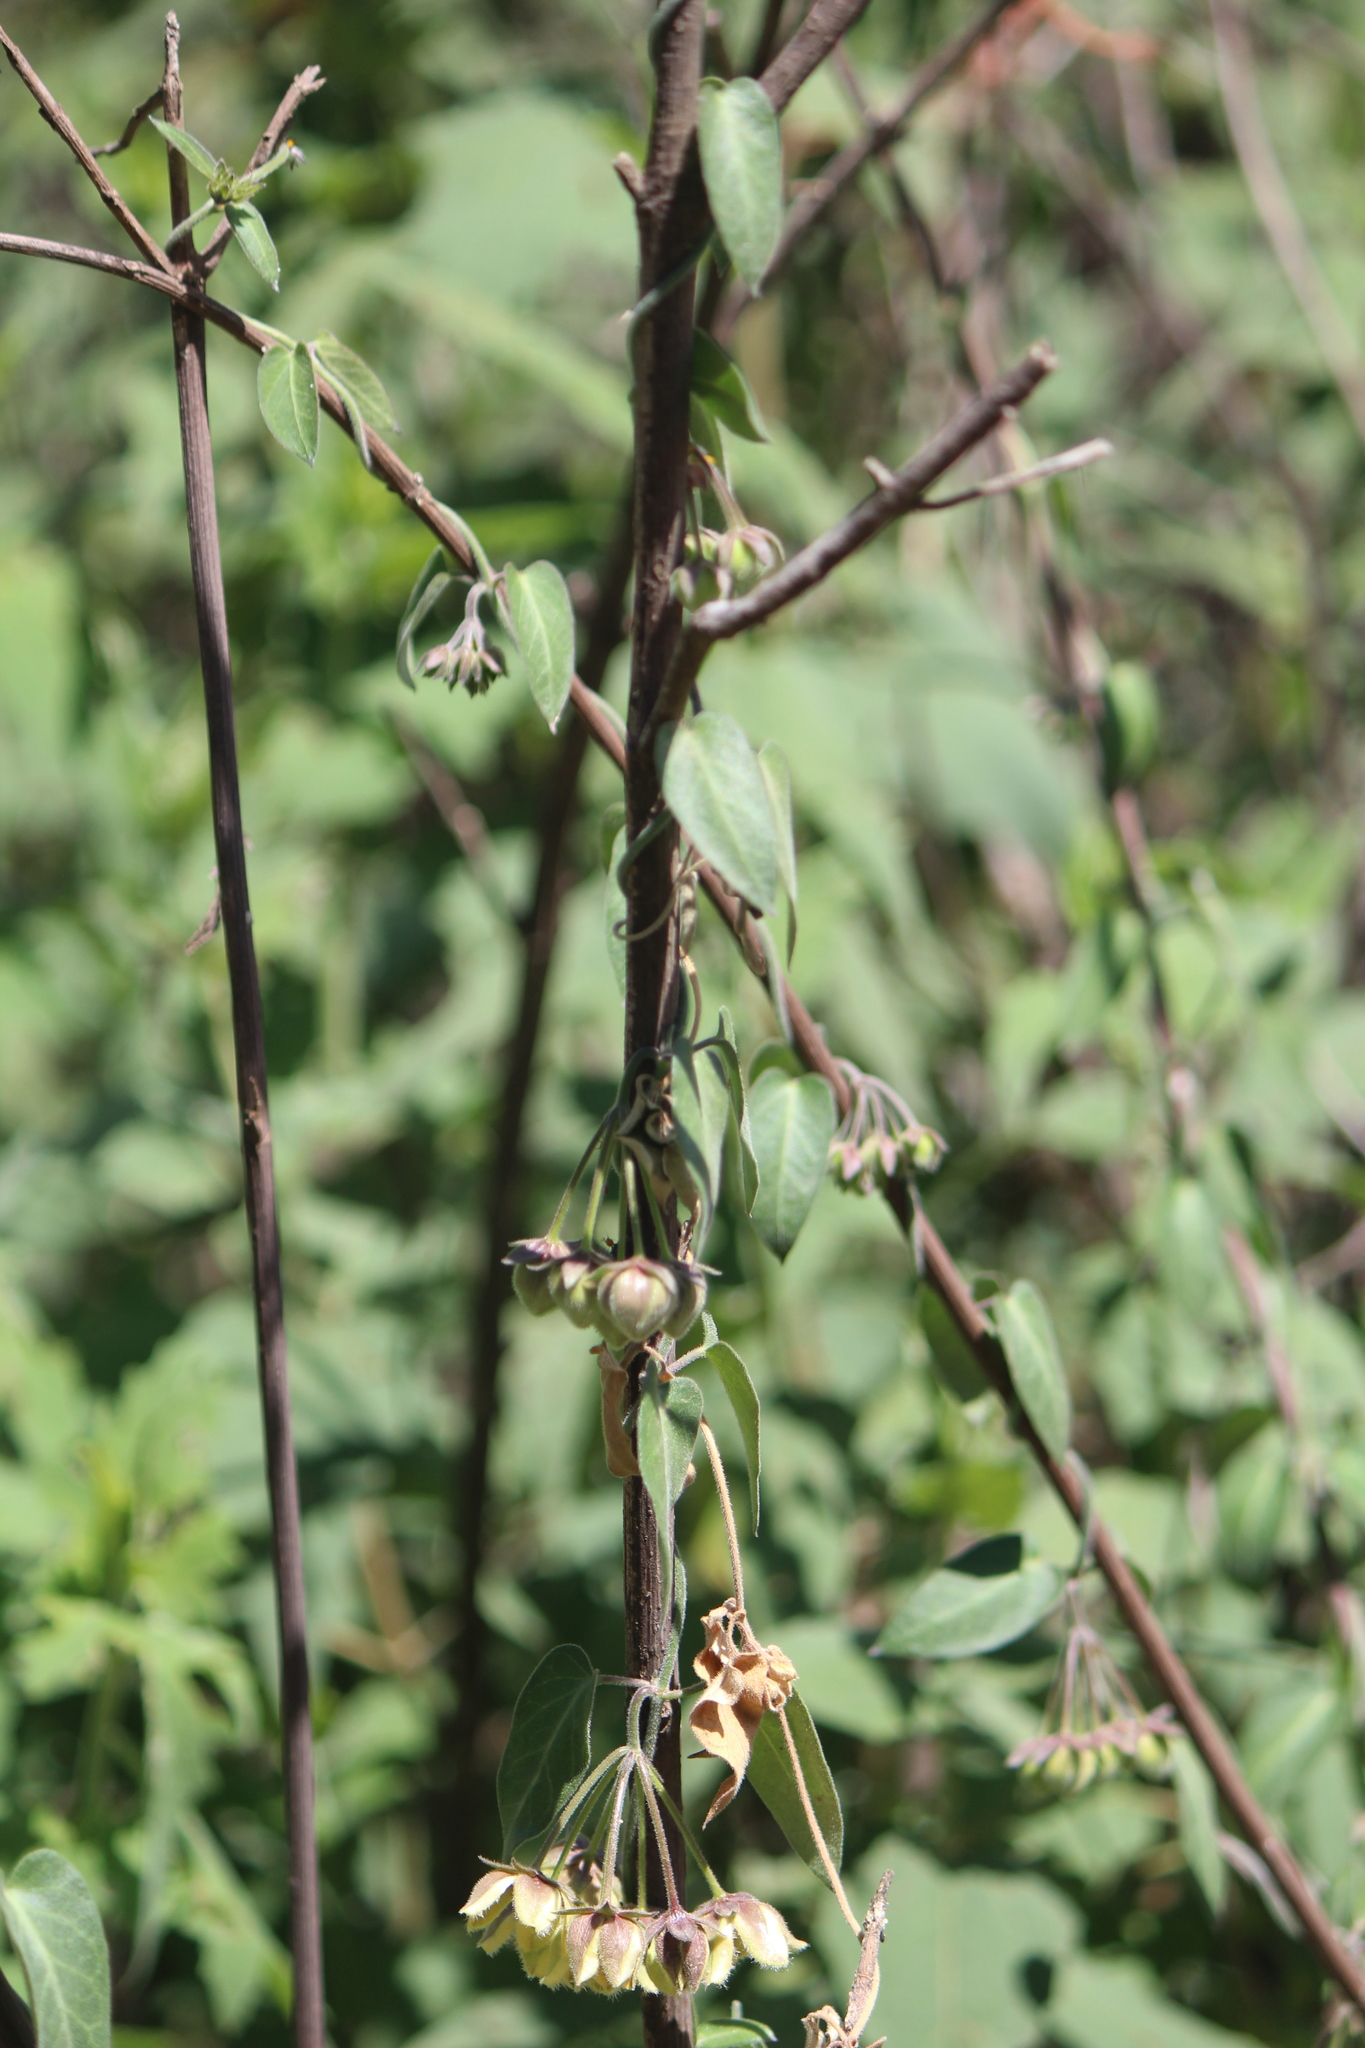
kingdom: Plantae
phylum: Tracheophyta
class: Magnoliopsida
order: Gentianales
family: Apocynaceae
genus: Funastrum
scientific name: Funastrum elegans
